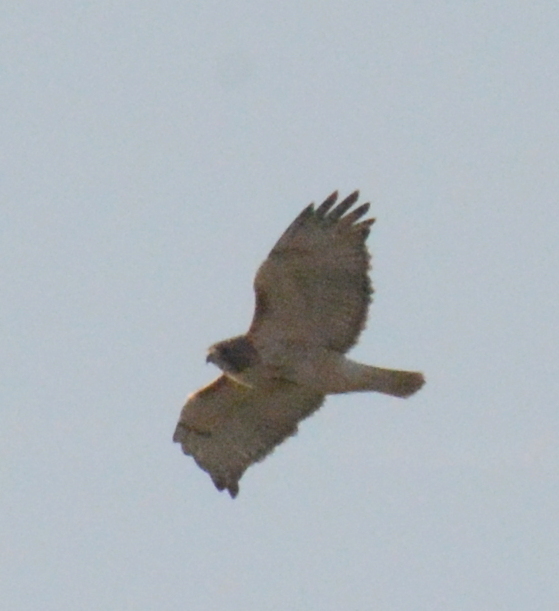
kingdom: Animalia
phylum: Chordata
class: Aves
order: Accipitriformes
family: Accipitridae
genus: Buteo
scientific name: Buteo jamaicensis
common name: Red-tailed hawk
